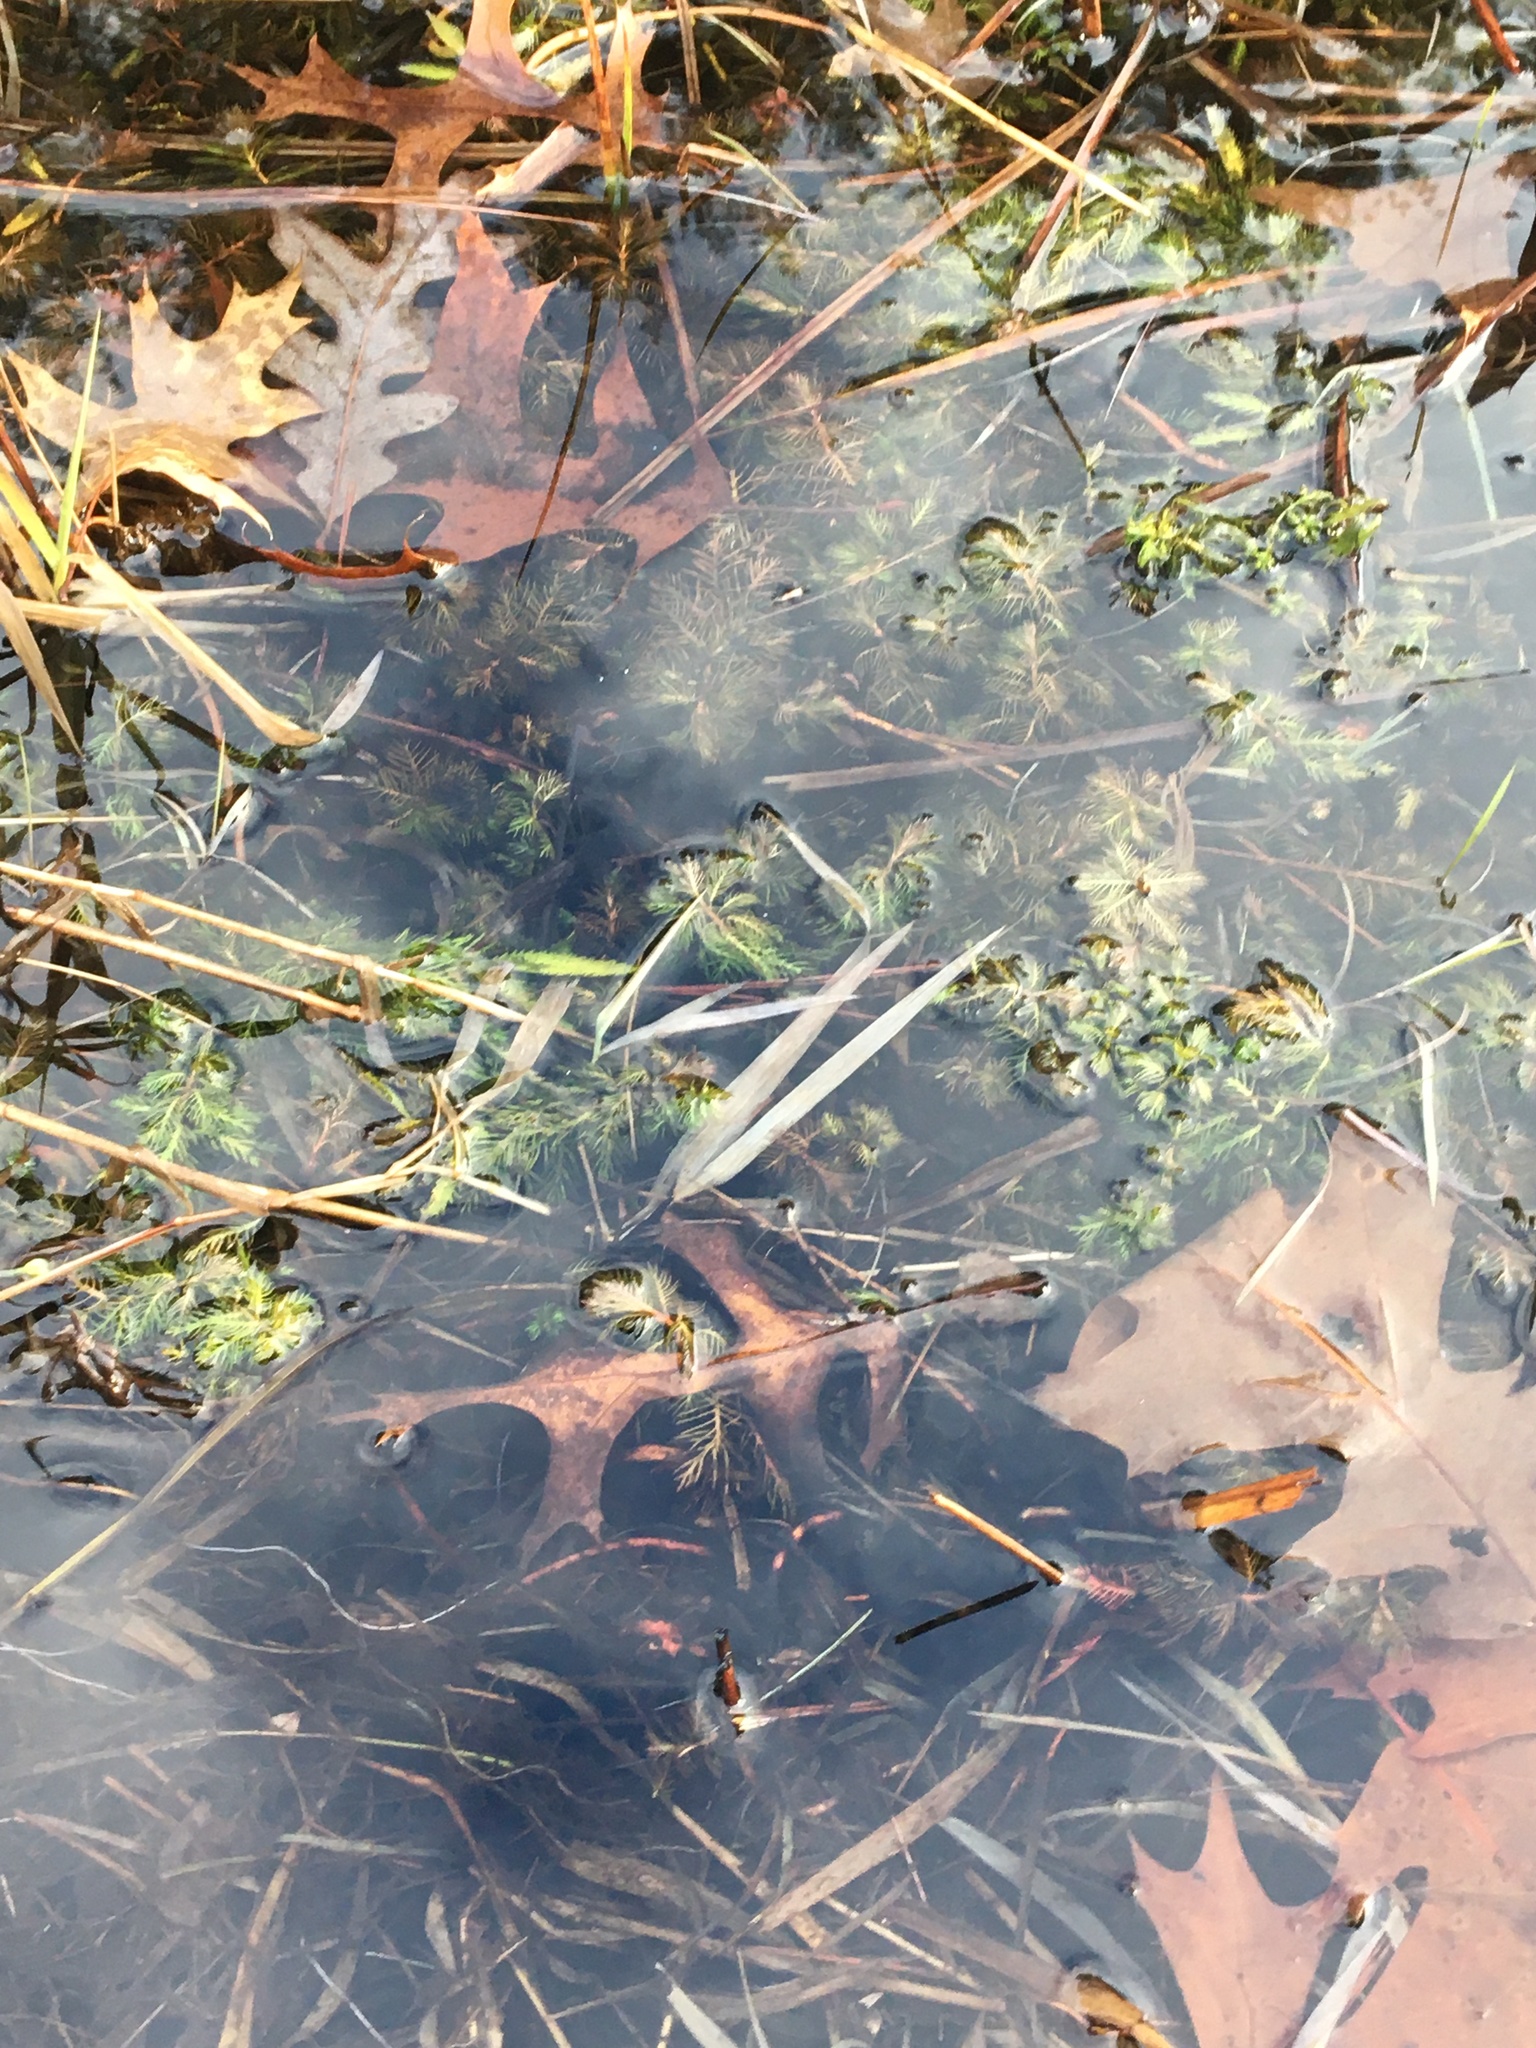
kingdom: Plantae
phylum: Tracheophyta
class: Magnoliopsida
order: Saxifragales
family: Haloragaceae
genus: Proserpinaca
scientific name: Proserpinaca palustris
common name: Marsh mermaidweed
